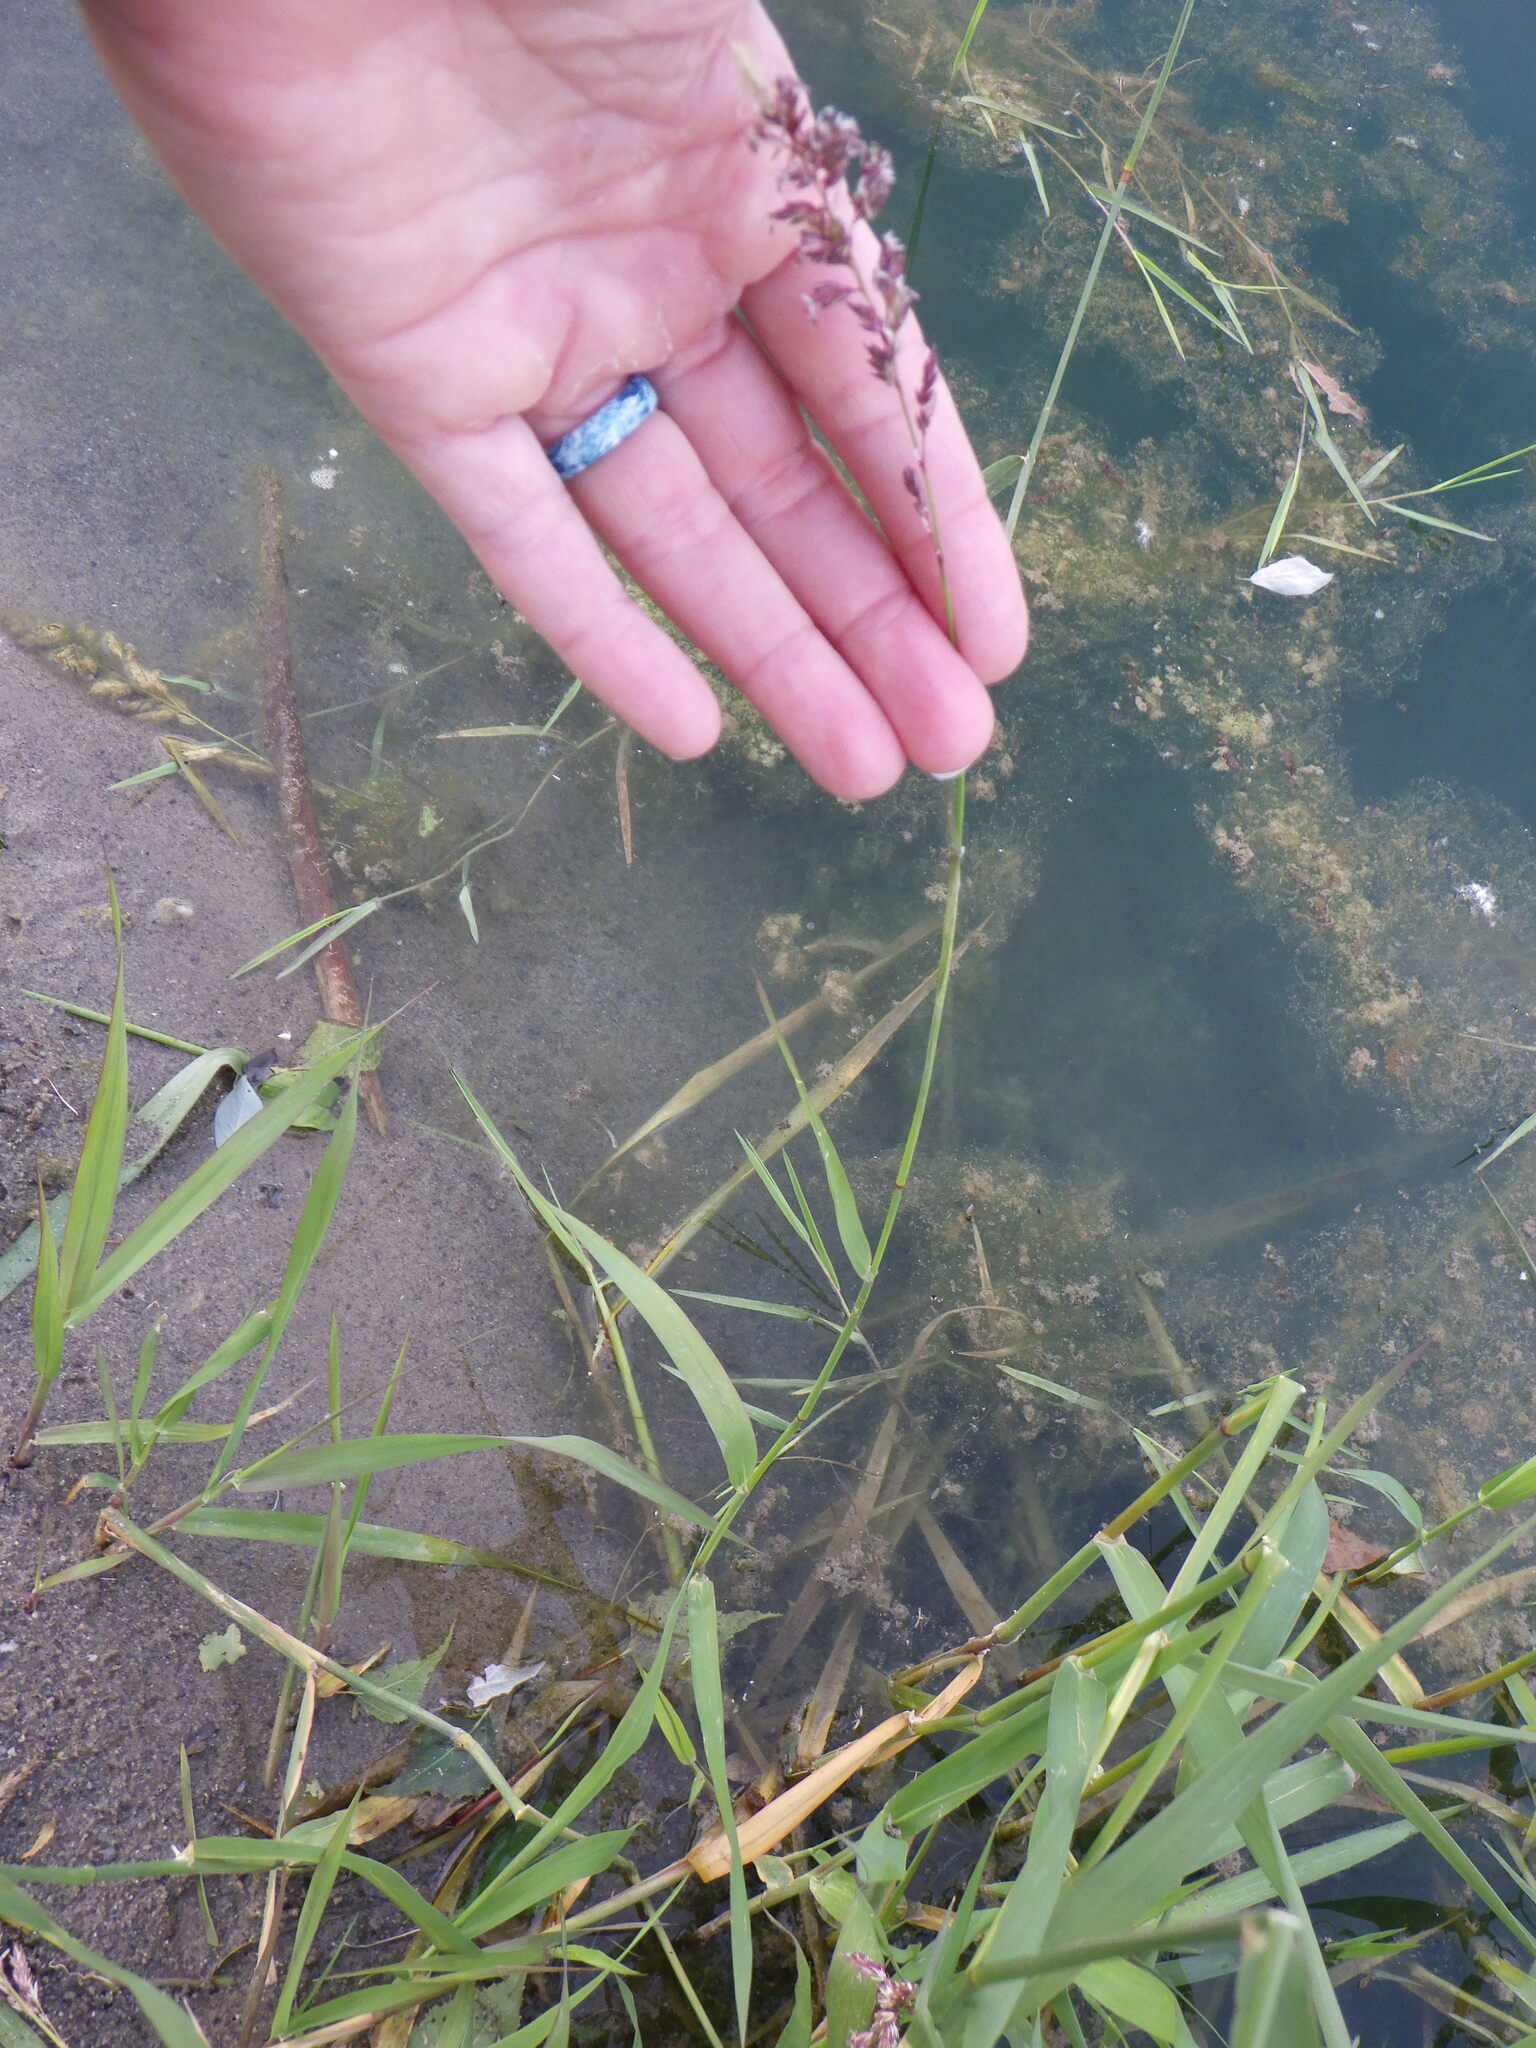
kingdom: Plantae
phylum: Tracheophyta
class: Liliopsida
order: Poales
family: Poaceae
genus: Phalaris
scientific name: Phalaris arundinacea
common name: Reed canary-grass
